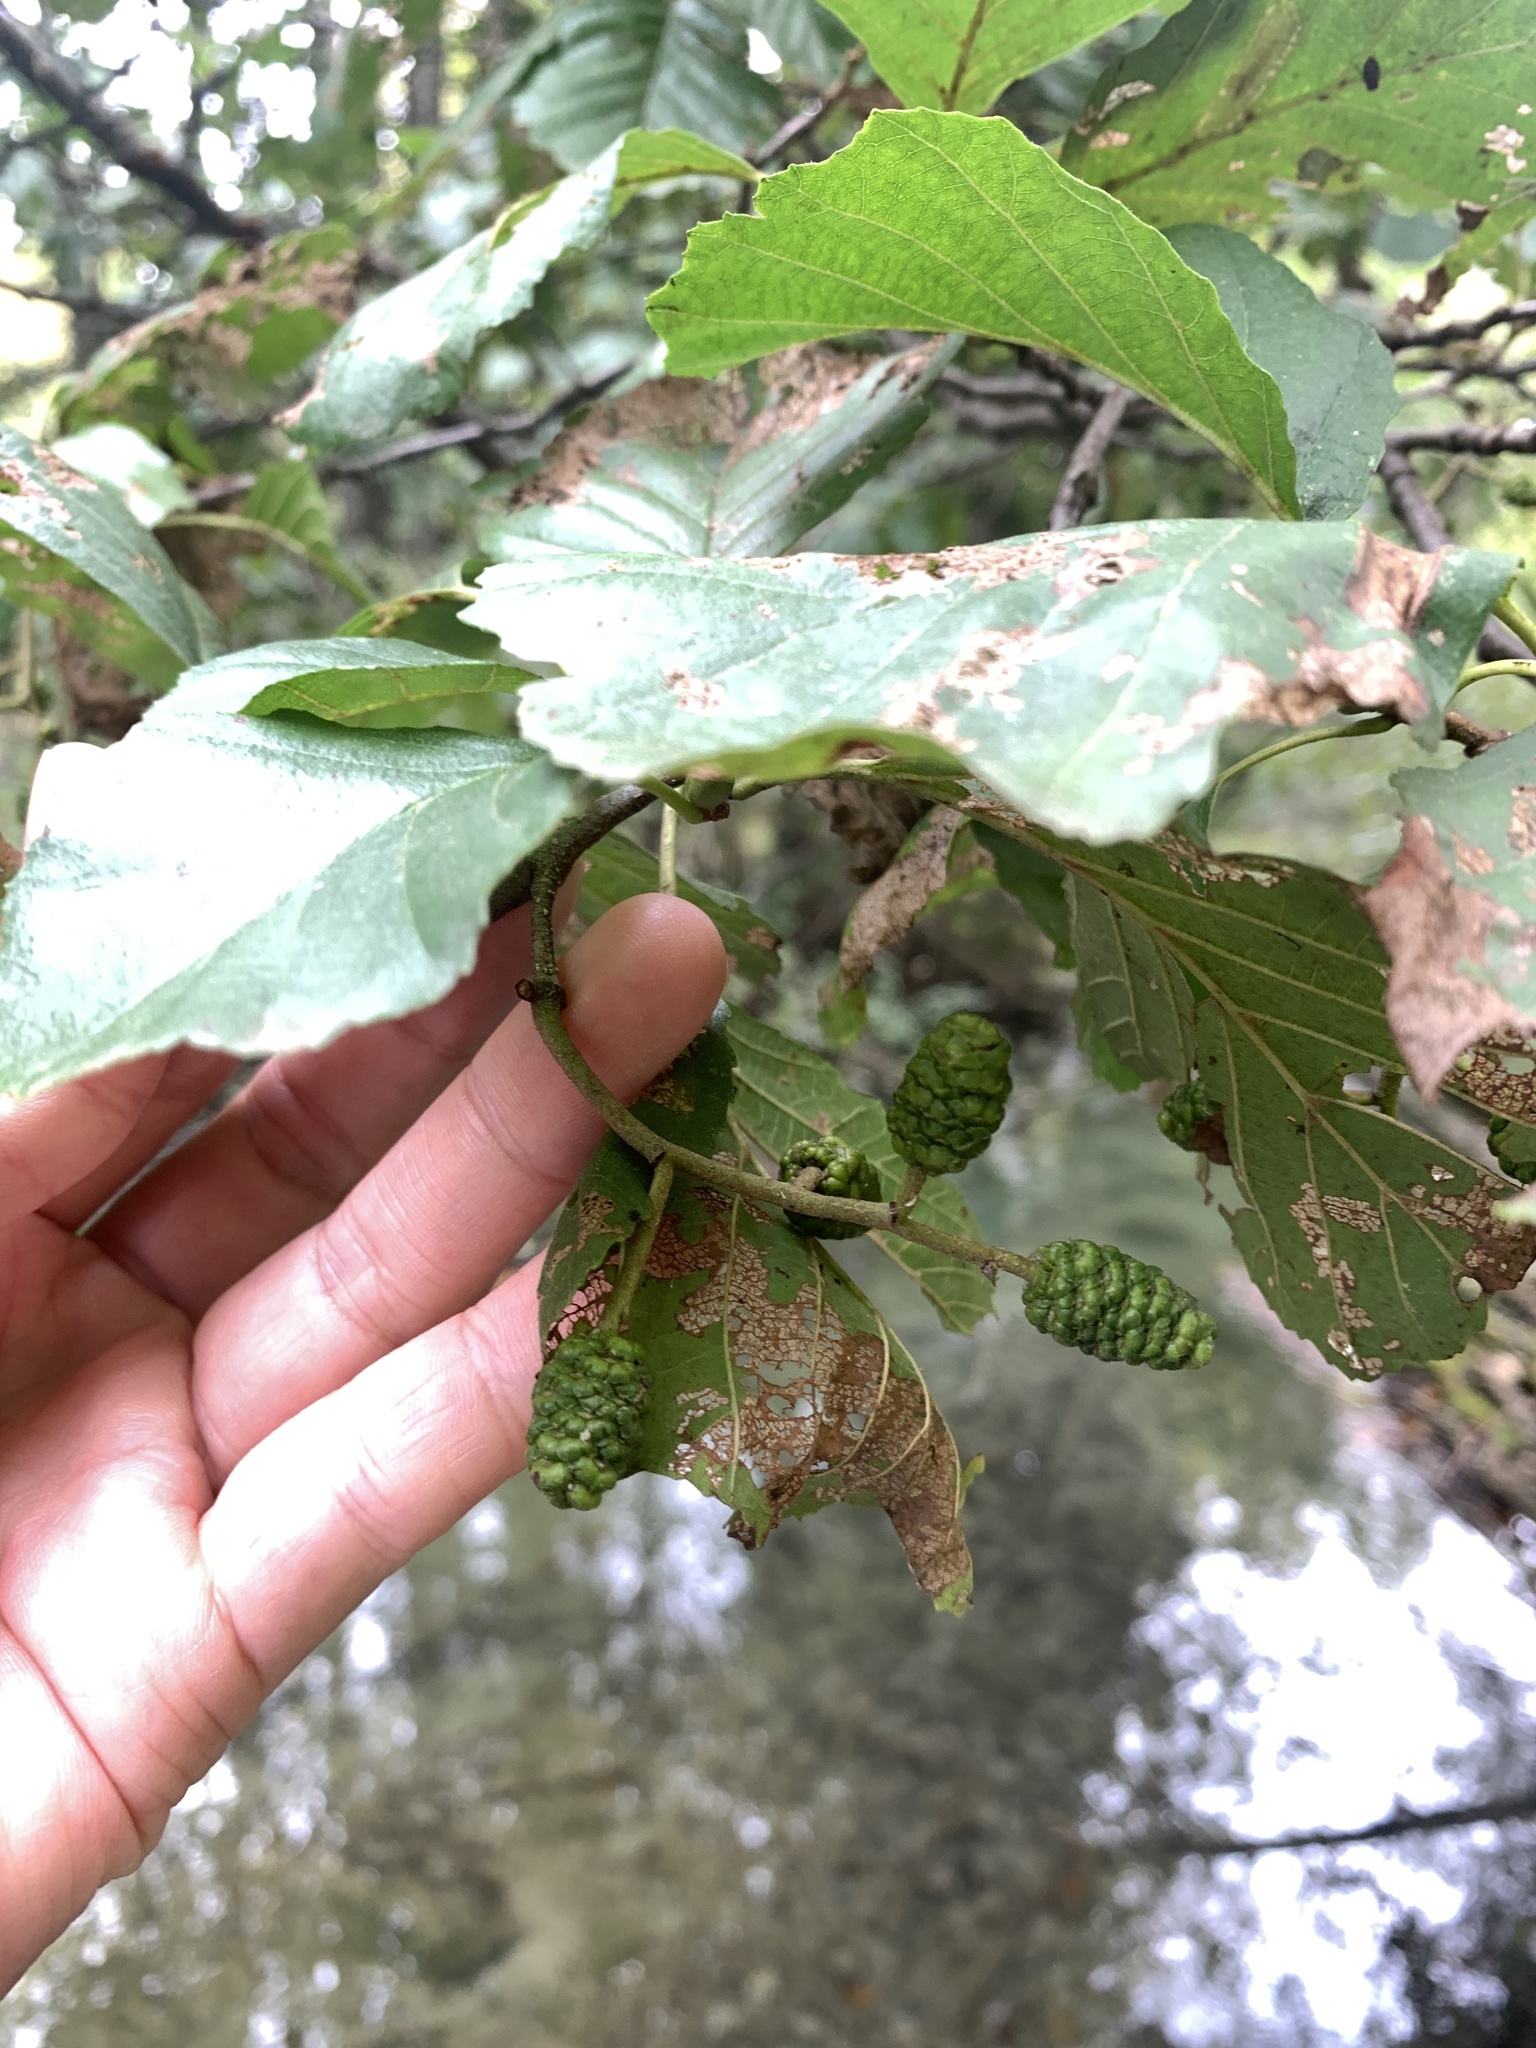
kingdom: Plantae
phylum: Tracheophyta
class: Magnoliopsida
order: Fagales
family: Betulaceae
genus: Alnus
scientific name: Alnus glutinosa
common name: Black alder
